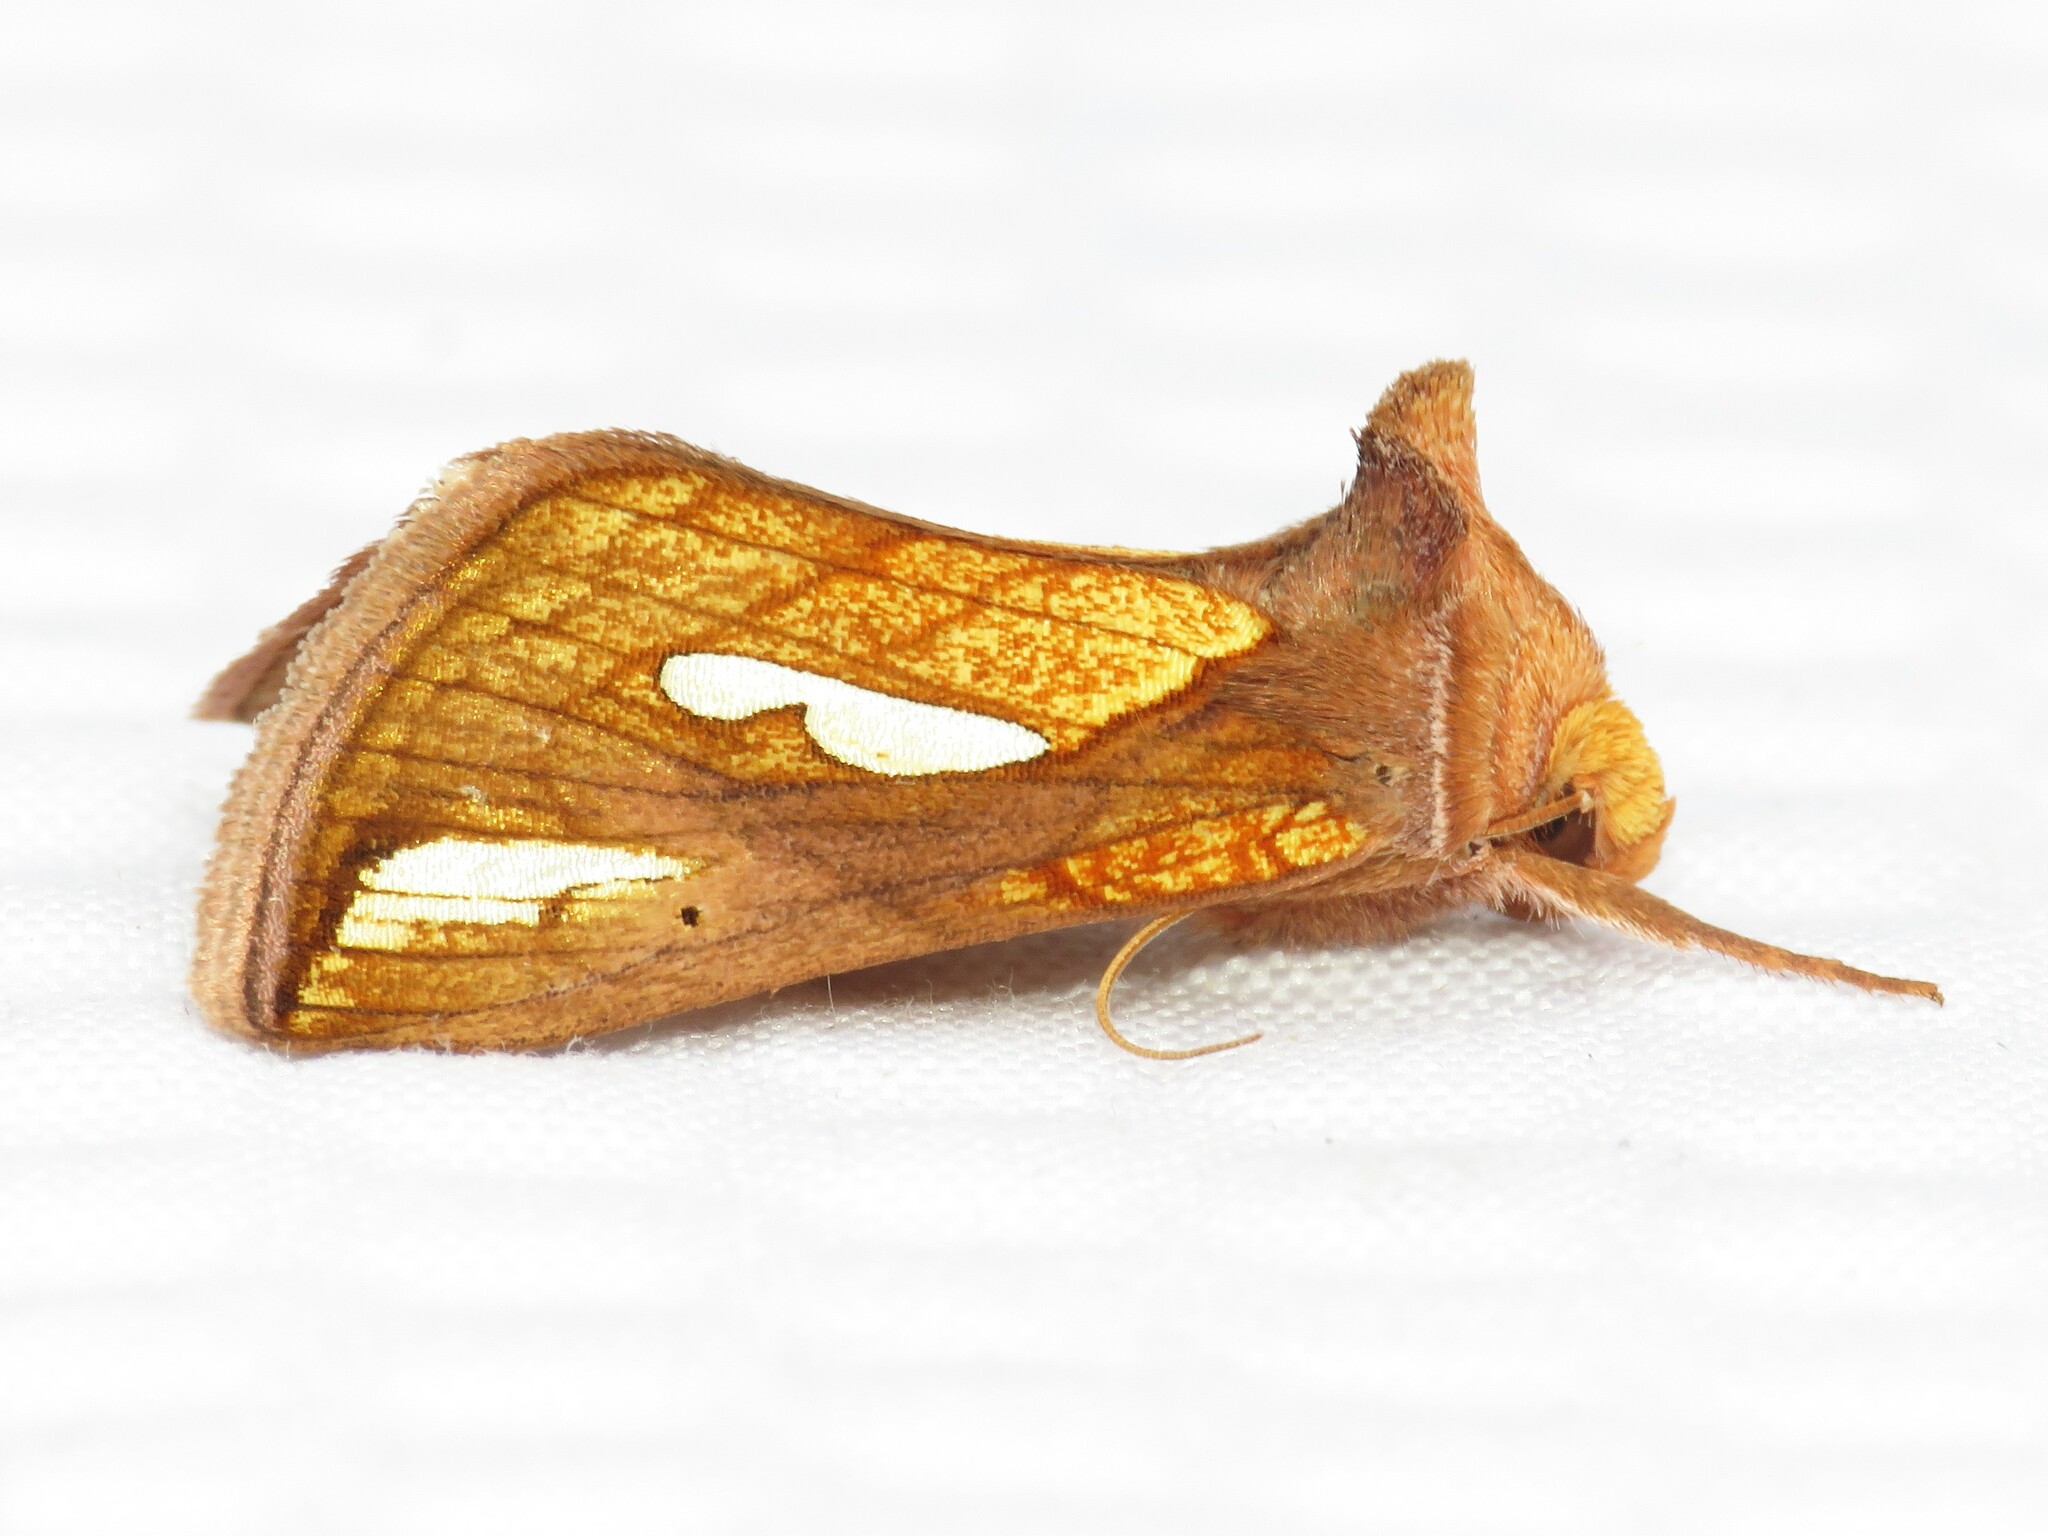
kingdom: Animalia
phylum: Arthropoda
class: Insecta
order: Lepidoptera
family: Noctuidae
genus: Plusia
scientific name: Plusia contexta
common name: Connected looper moth
